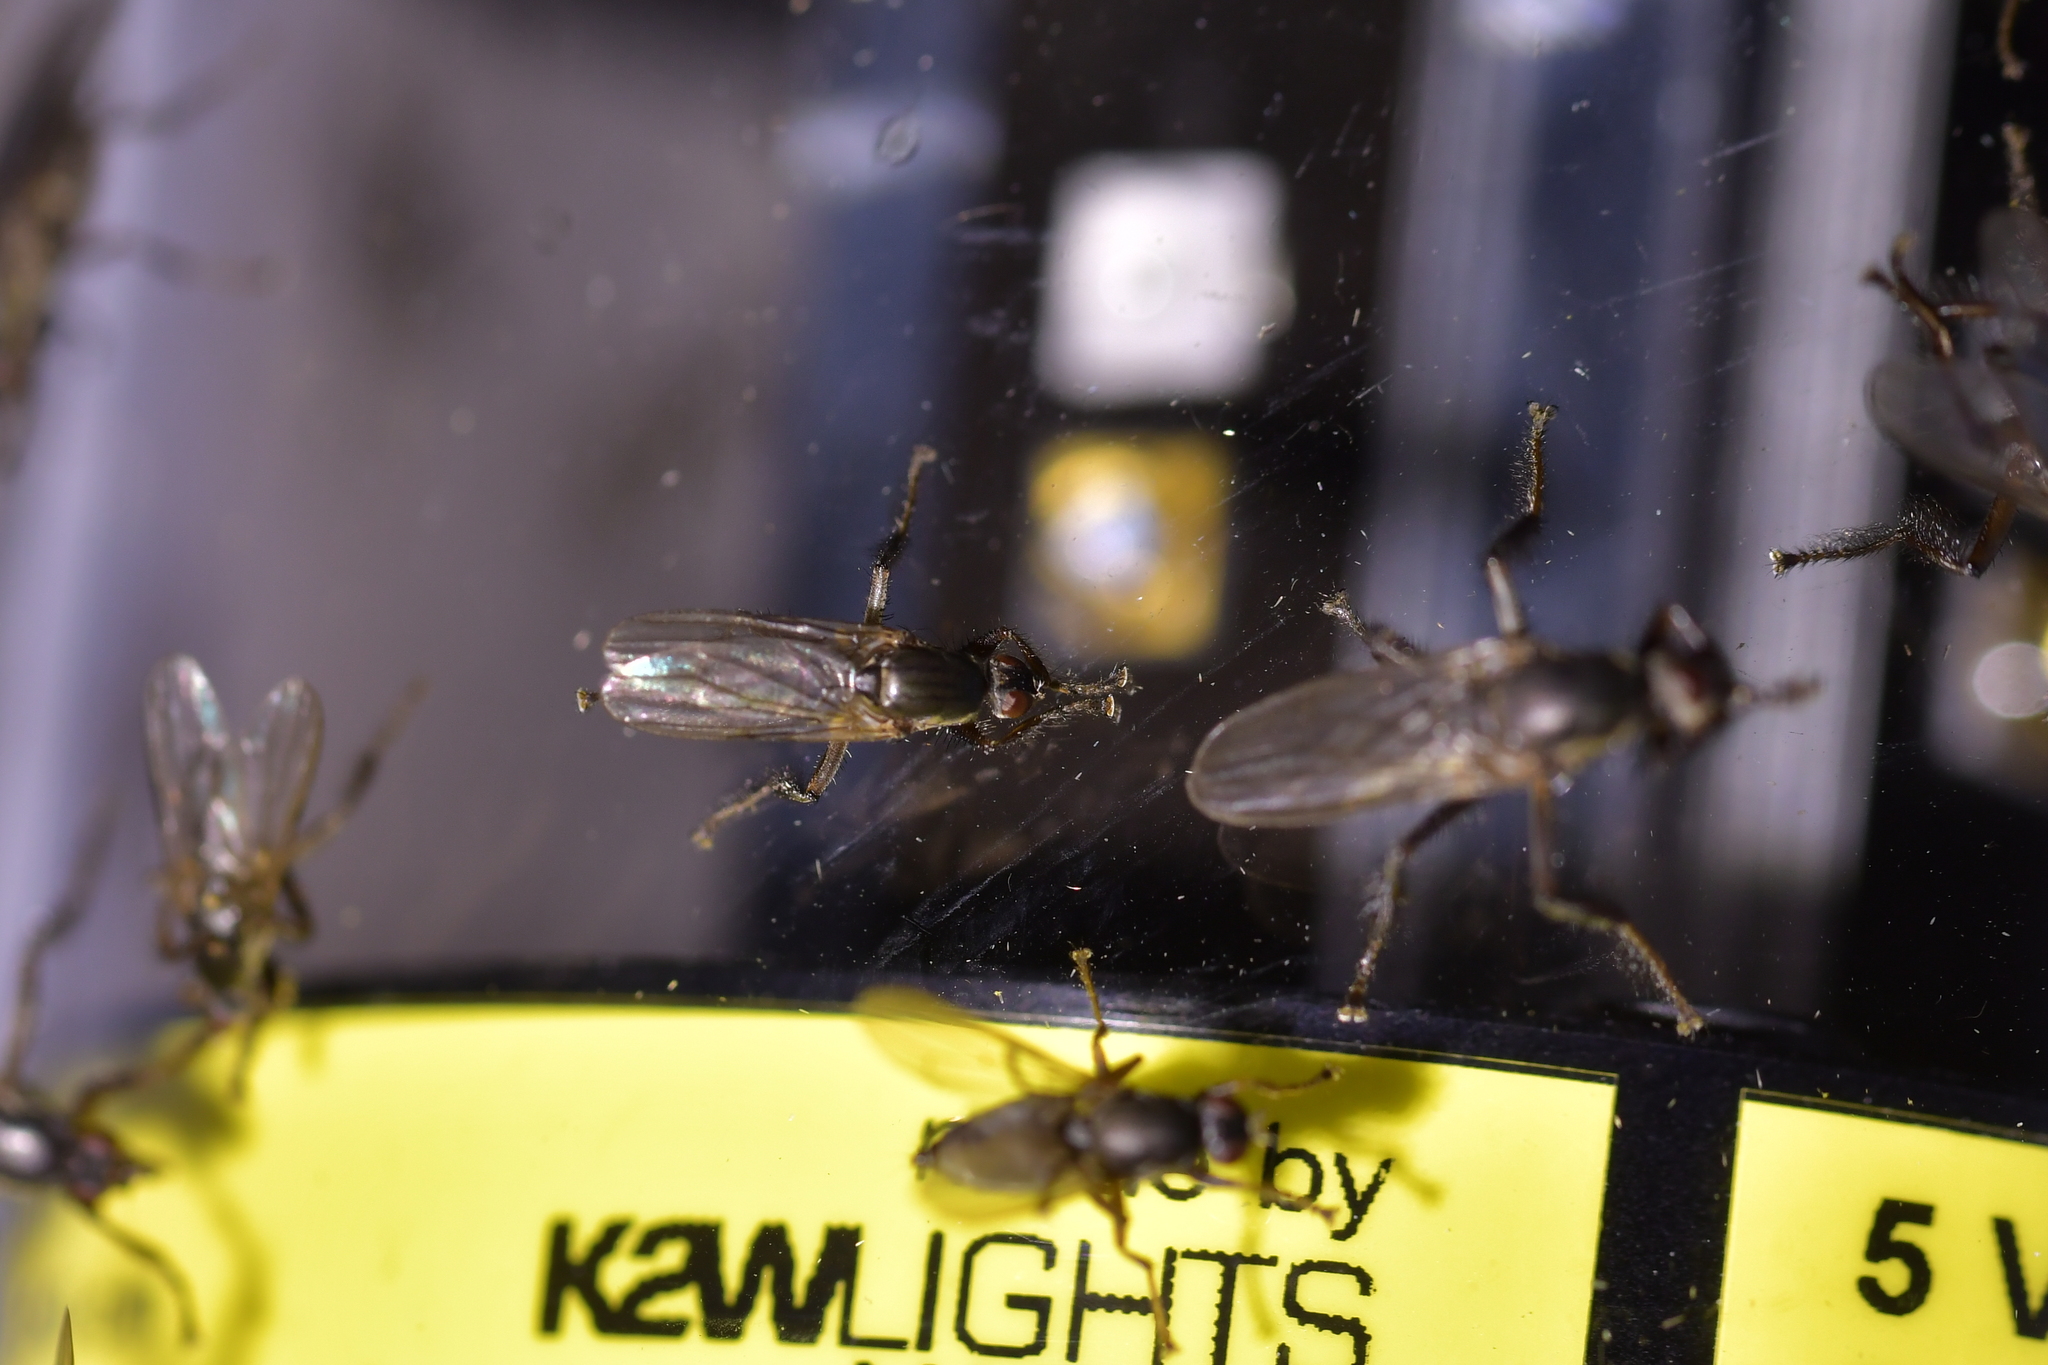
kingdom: Animalia
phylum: Arthropoda
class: Insecta
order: Diptera
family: Coelopidae
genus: Chaetocoelopa
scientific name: Chaetocoelopa littoralis
